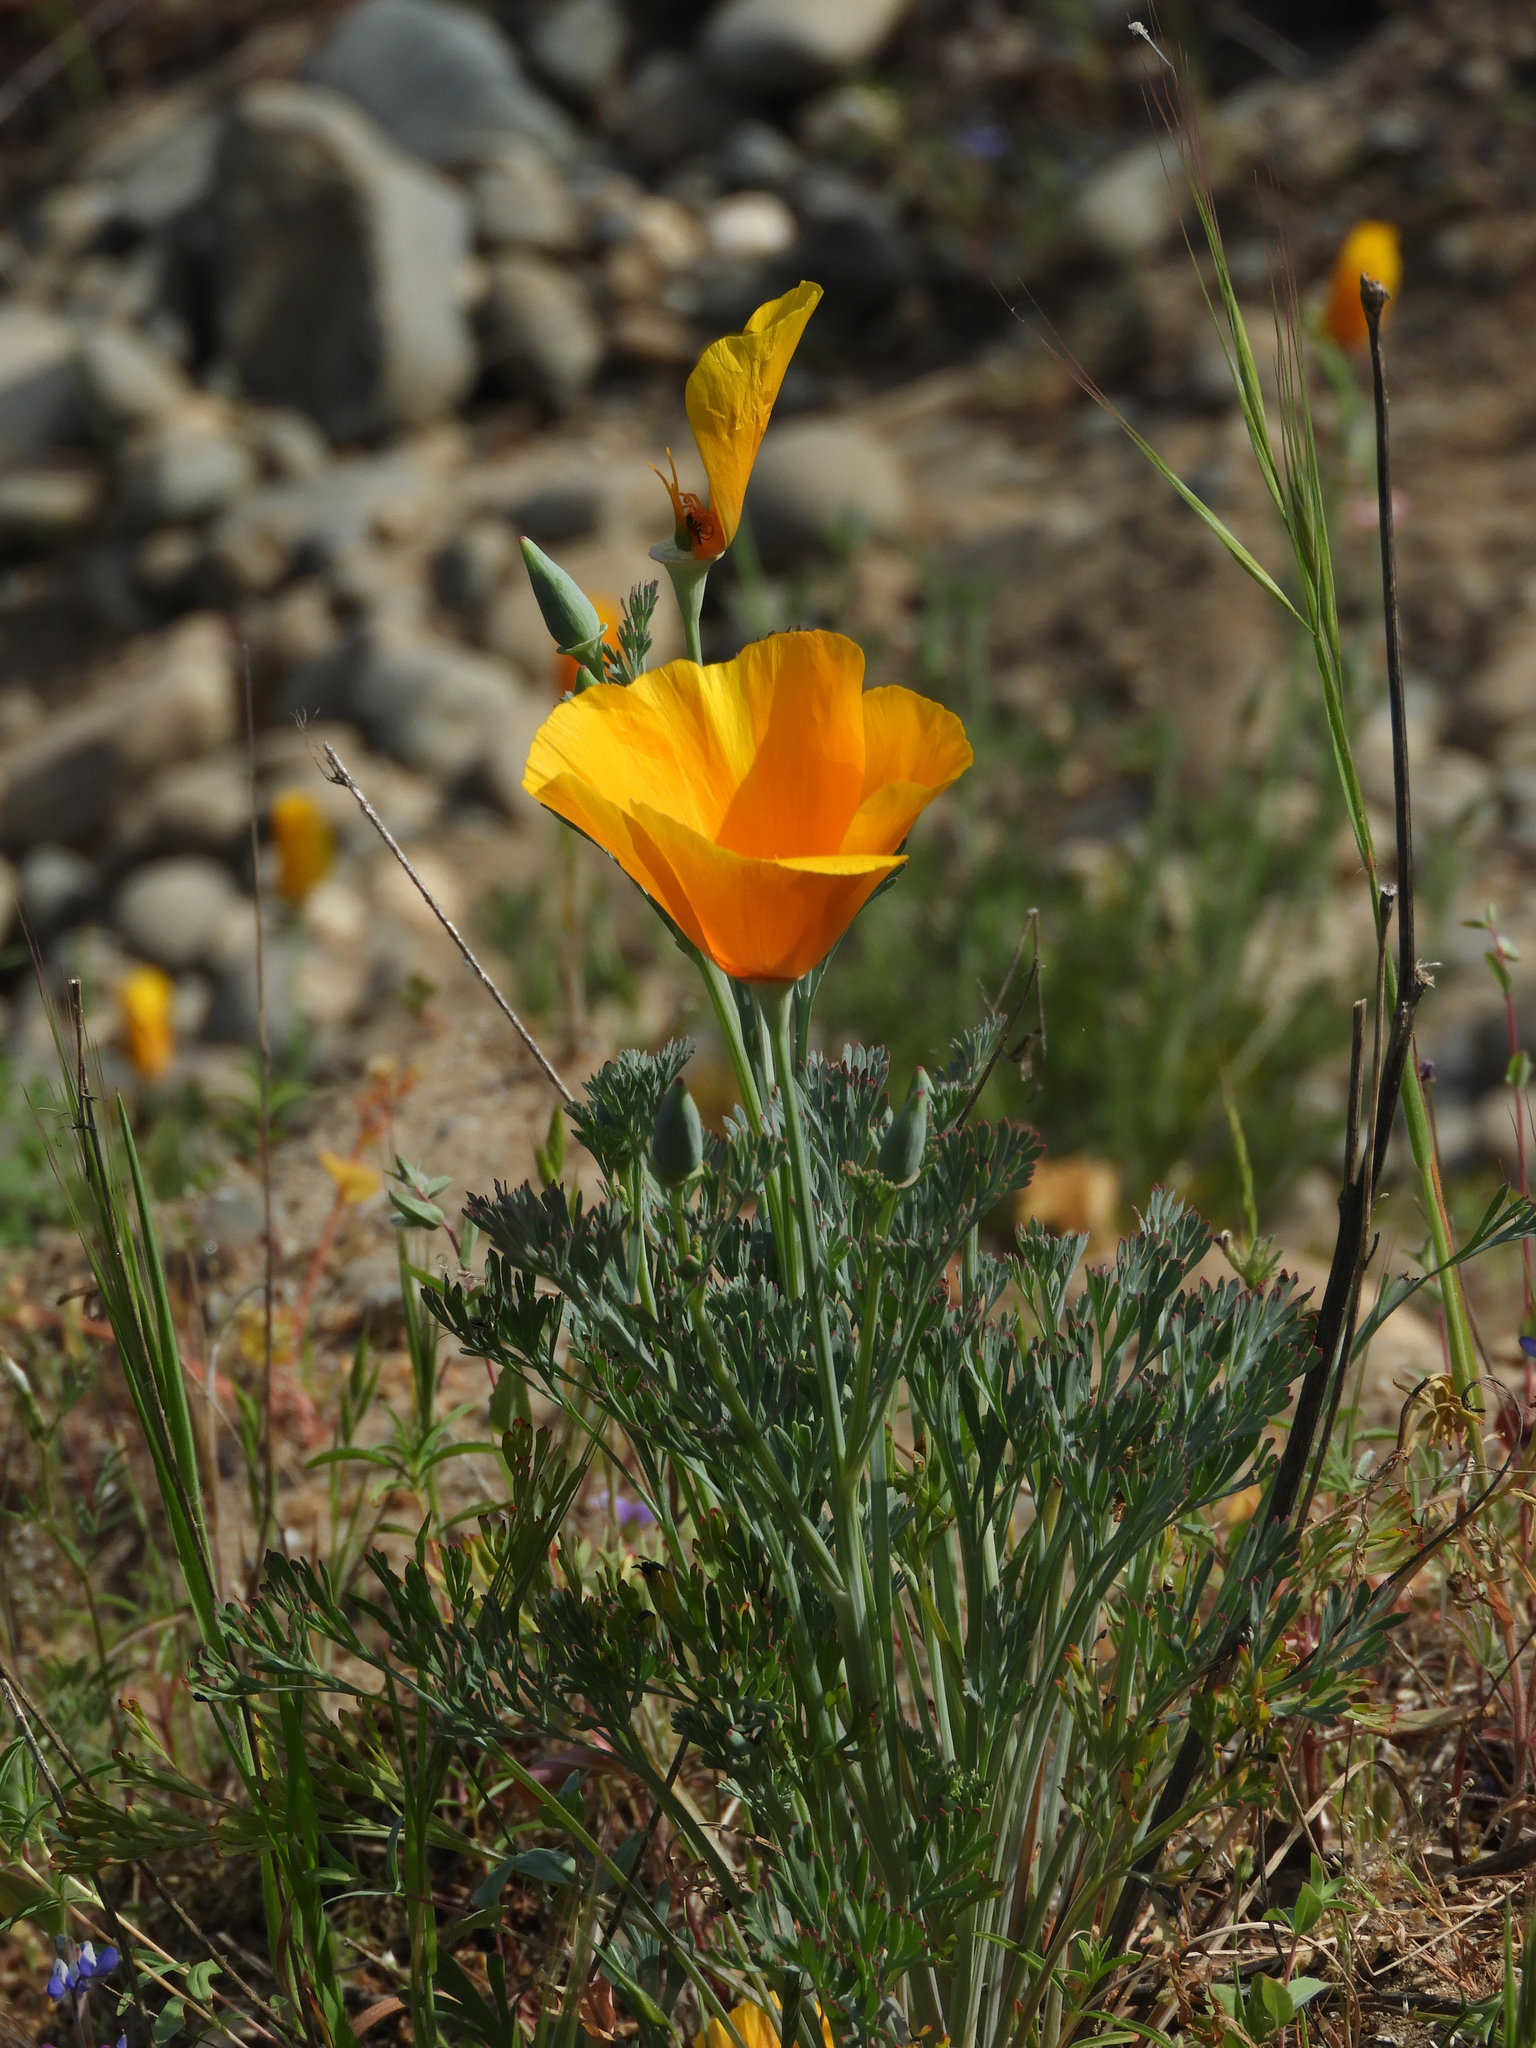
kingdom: Plantae
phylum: Tracheophyta
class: Magnoliopsida
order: Ranunculales
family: Papaveraceae
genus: Eschscholzia
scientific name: Eschscholzia californica
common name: California poppy
